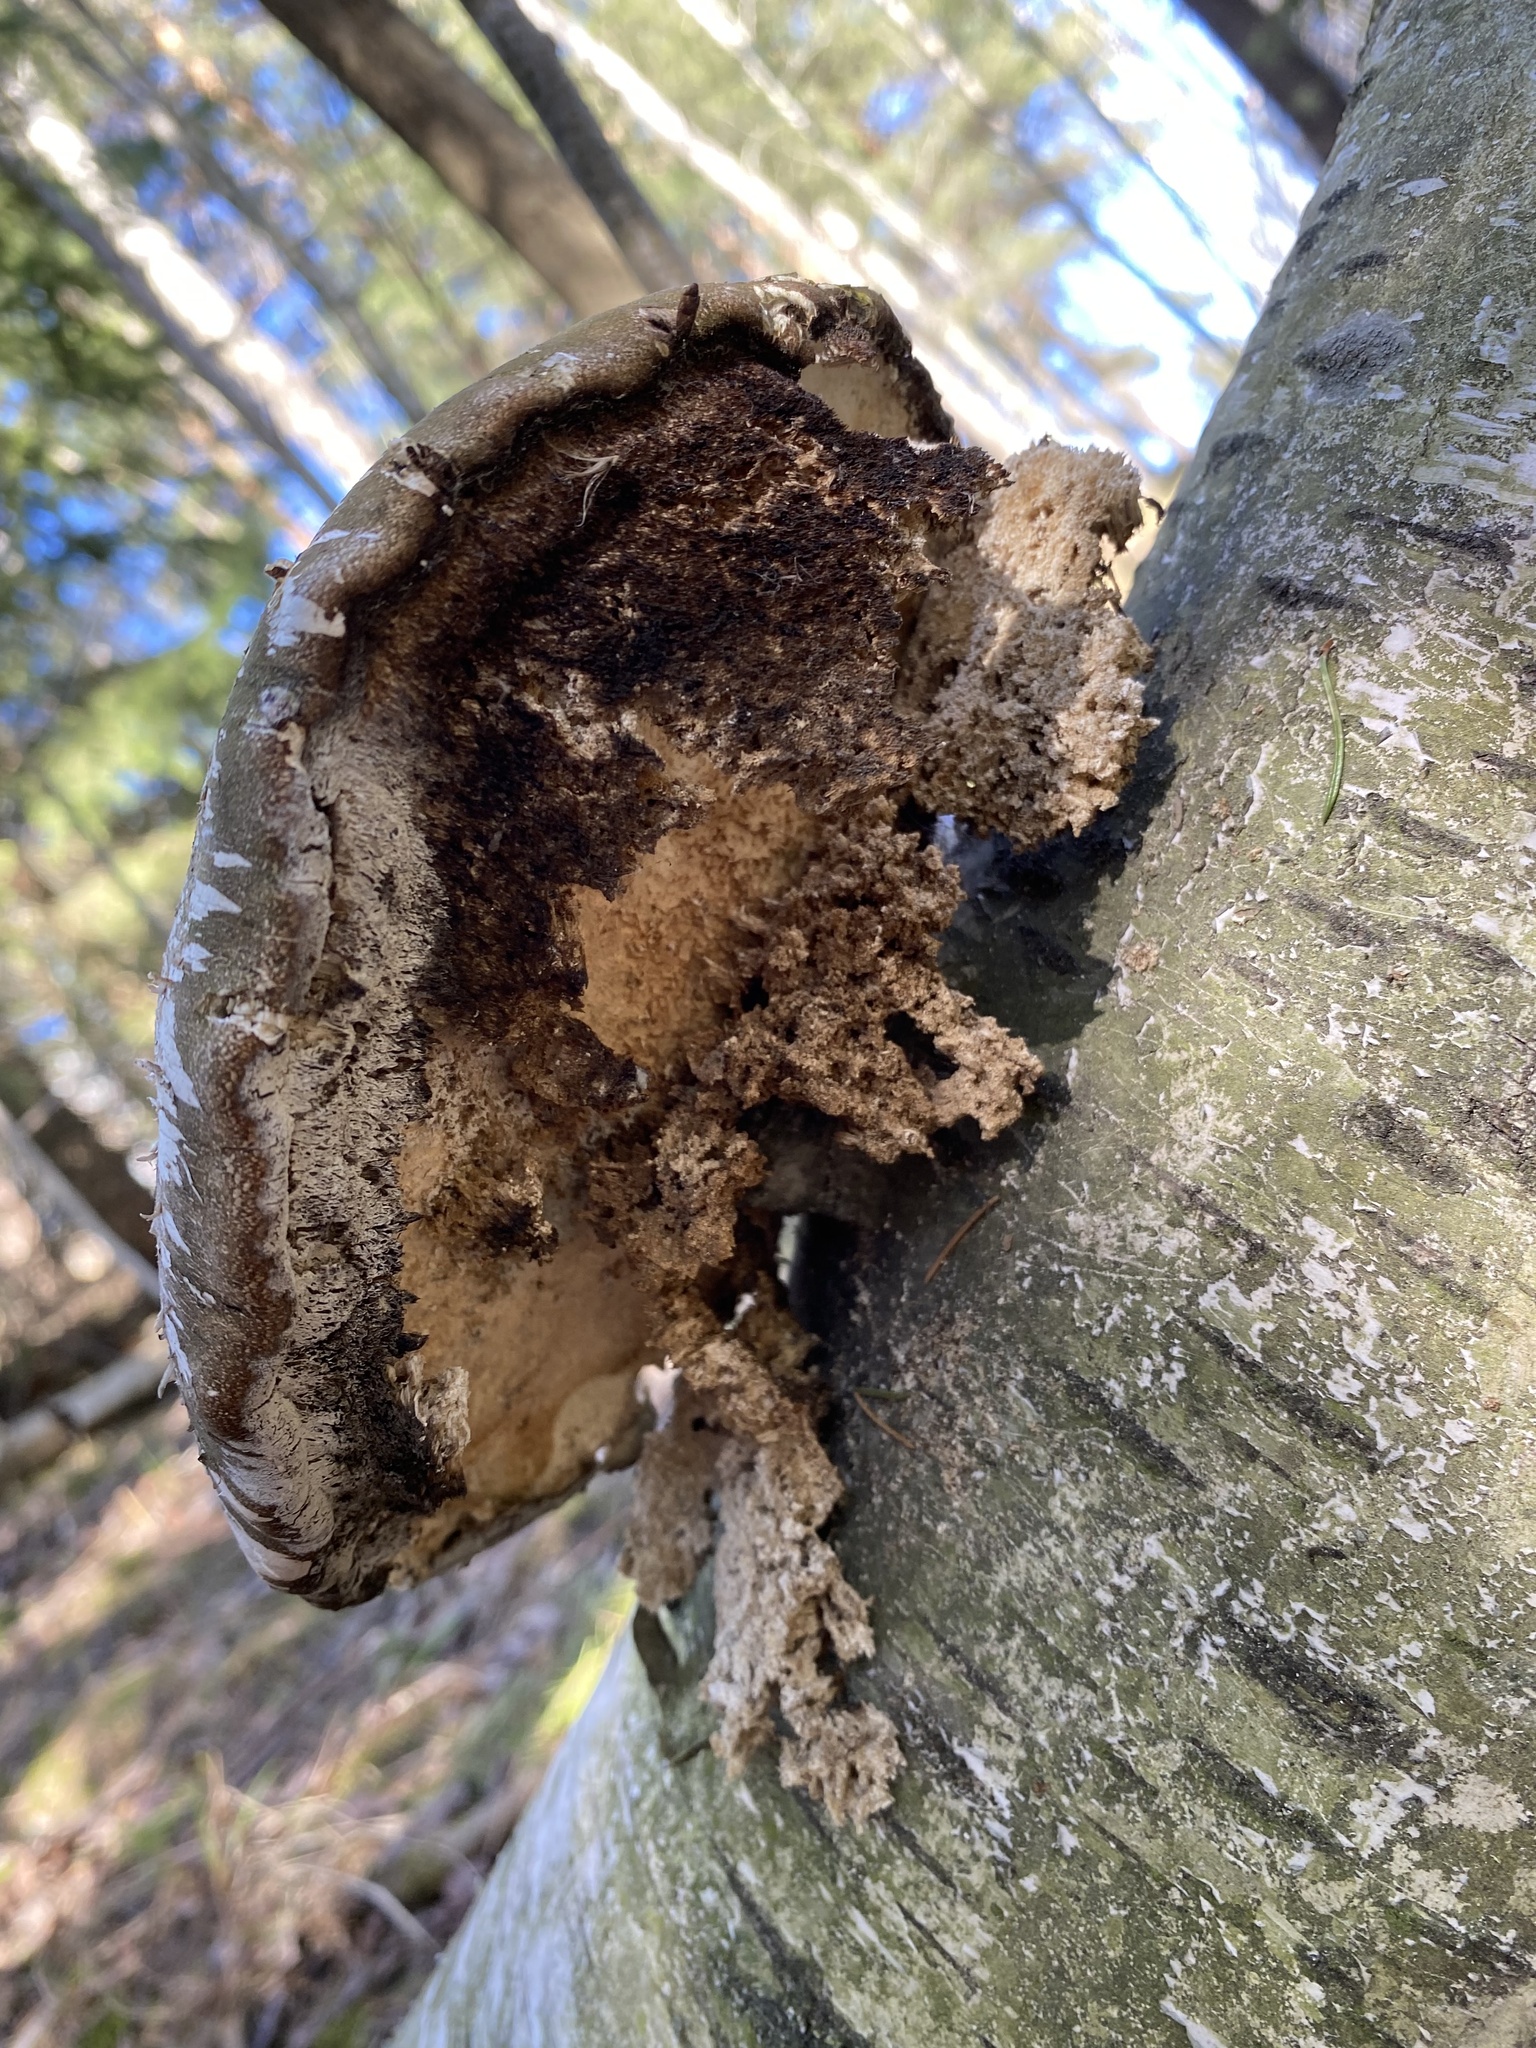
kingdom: Fungi
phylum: Basidiomycota
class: Agaricomycetes
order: Polyporales
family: Fomitopsidaceae
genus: Fomitopsis
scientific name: Fomitopsis betulina
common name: Birch polypore
